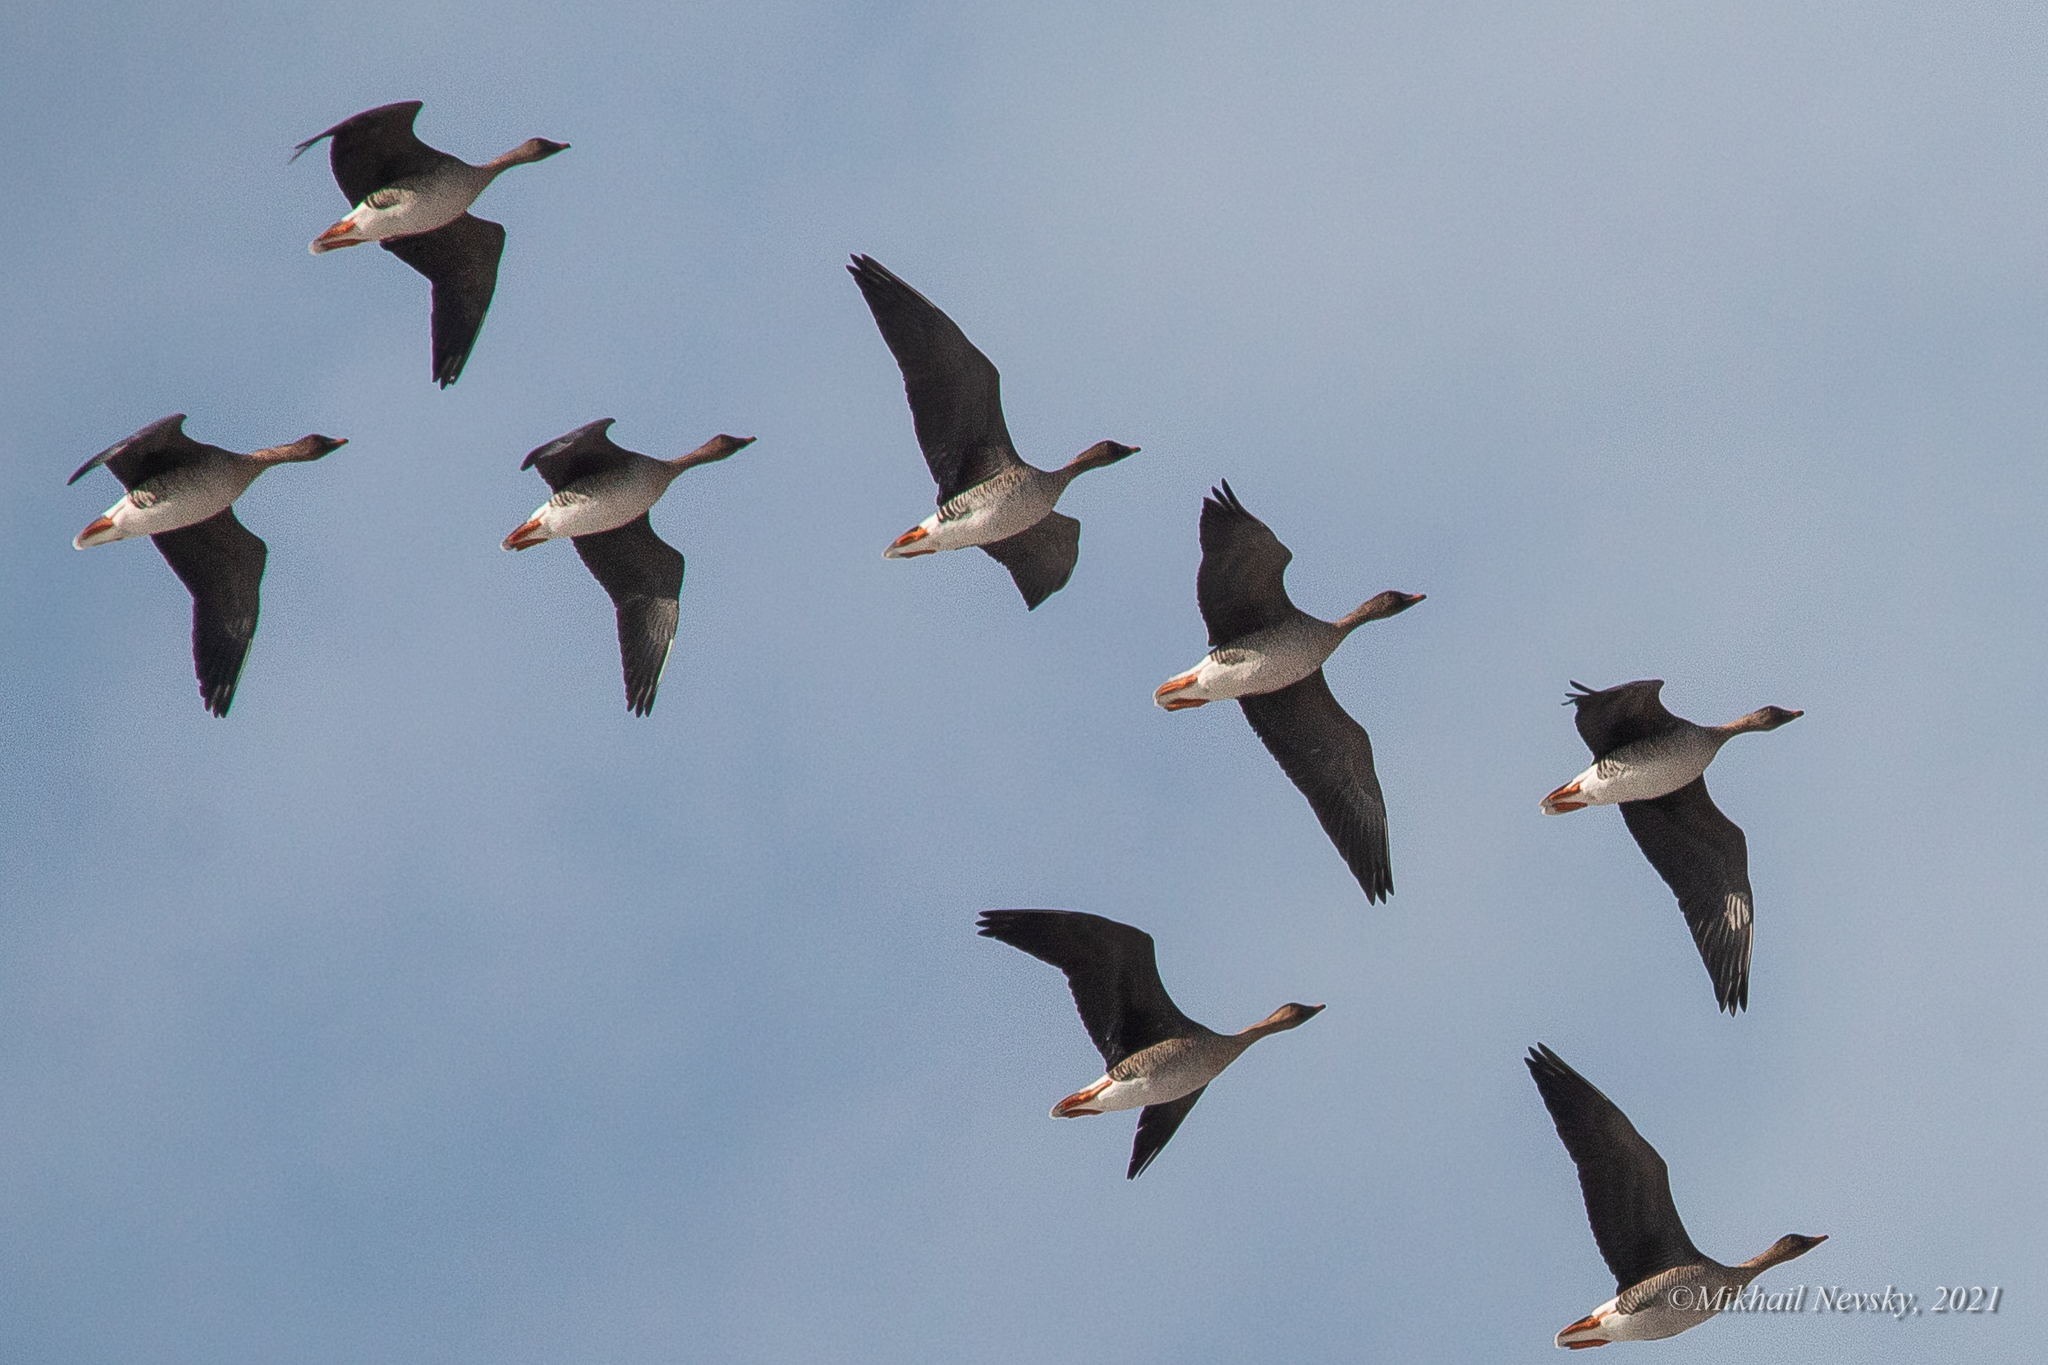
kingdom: Animalia
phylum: Chordata
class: Aves
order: Anseriformes
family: Anatidae
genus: Anser
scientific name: Anser fabalis
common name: Bean goose
